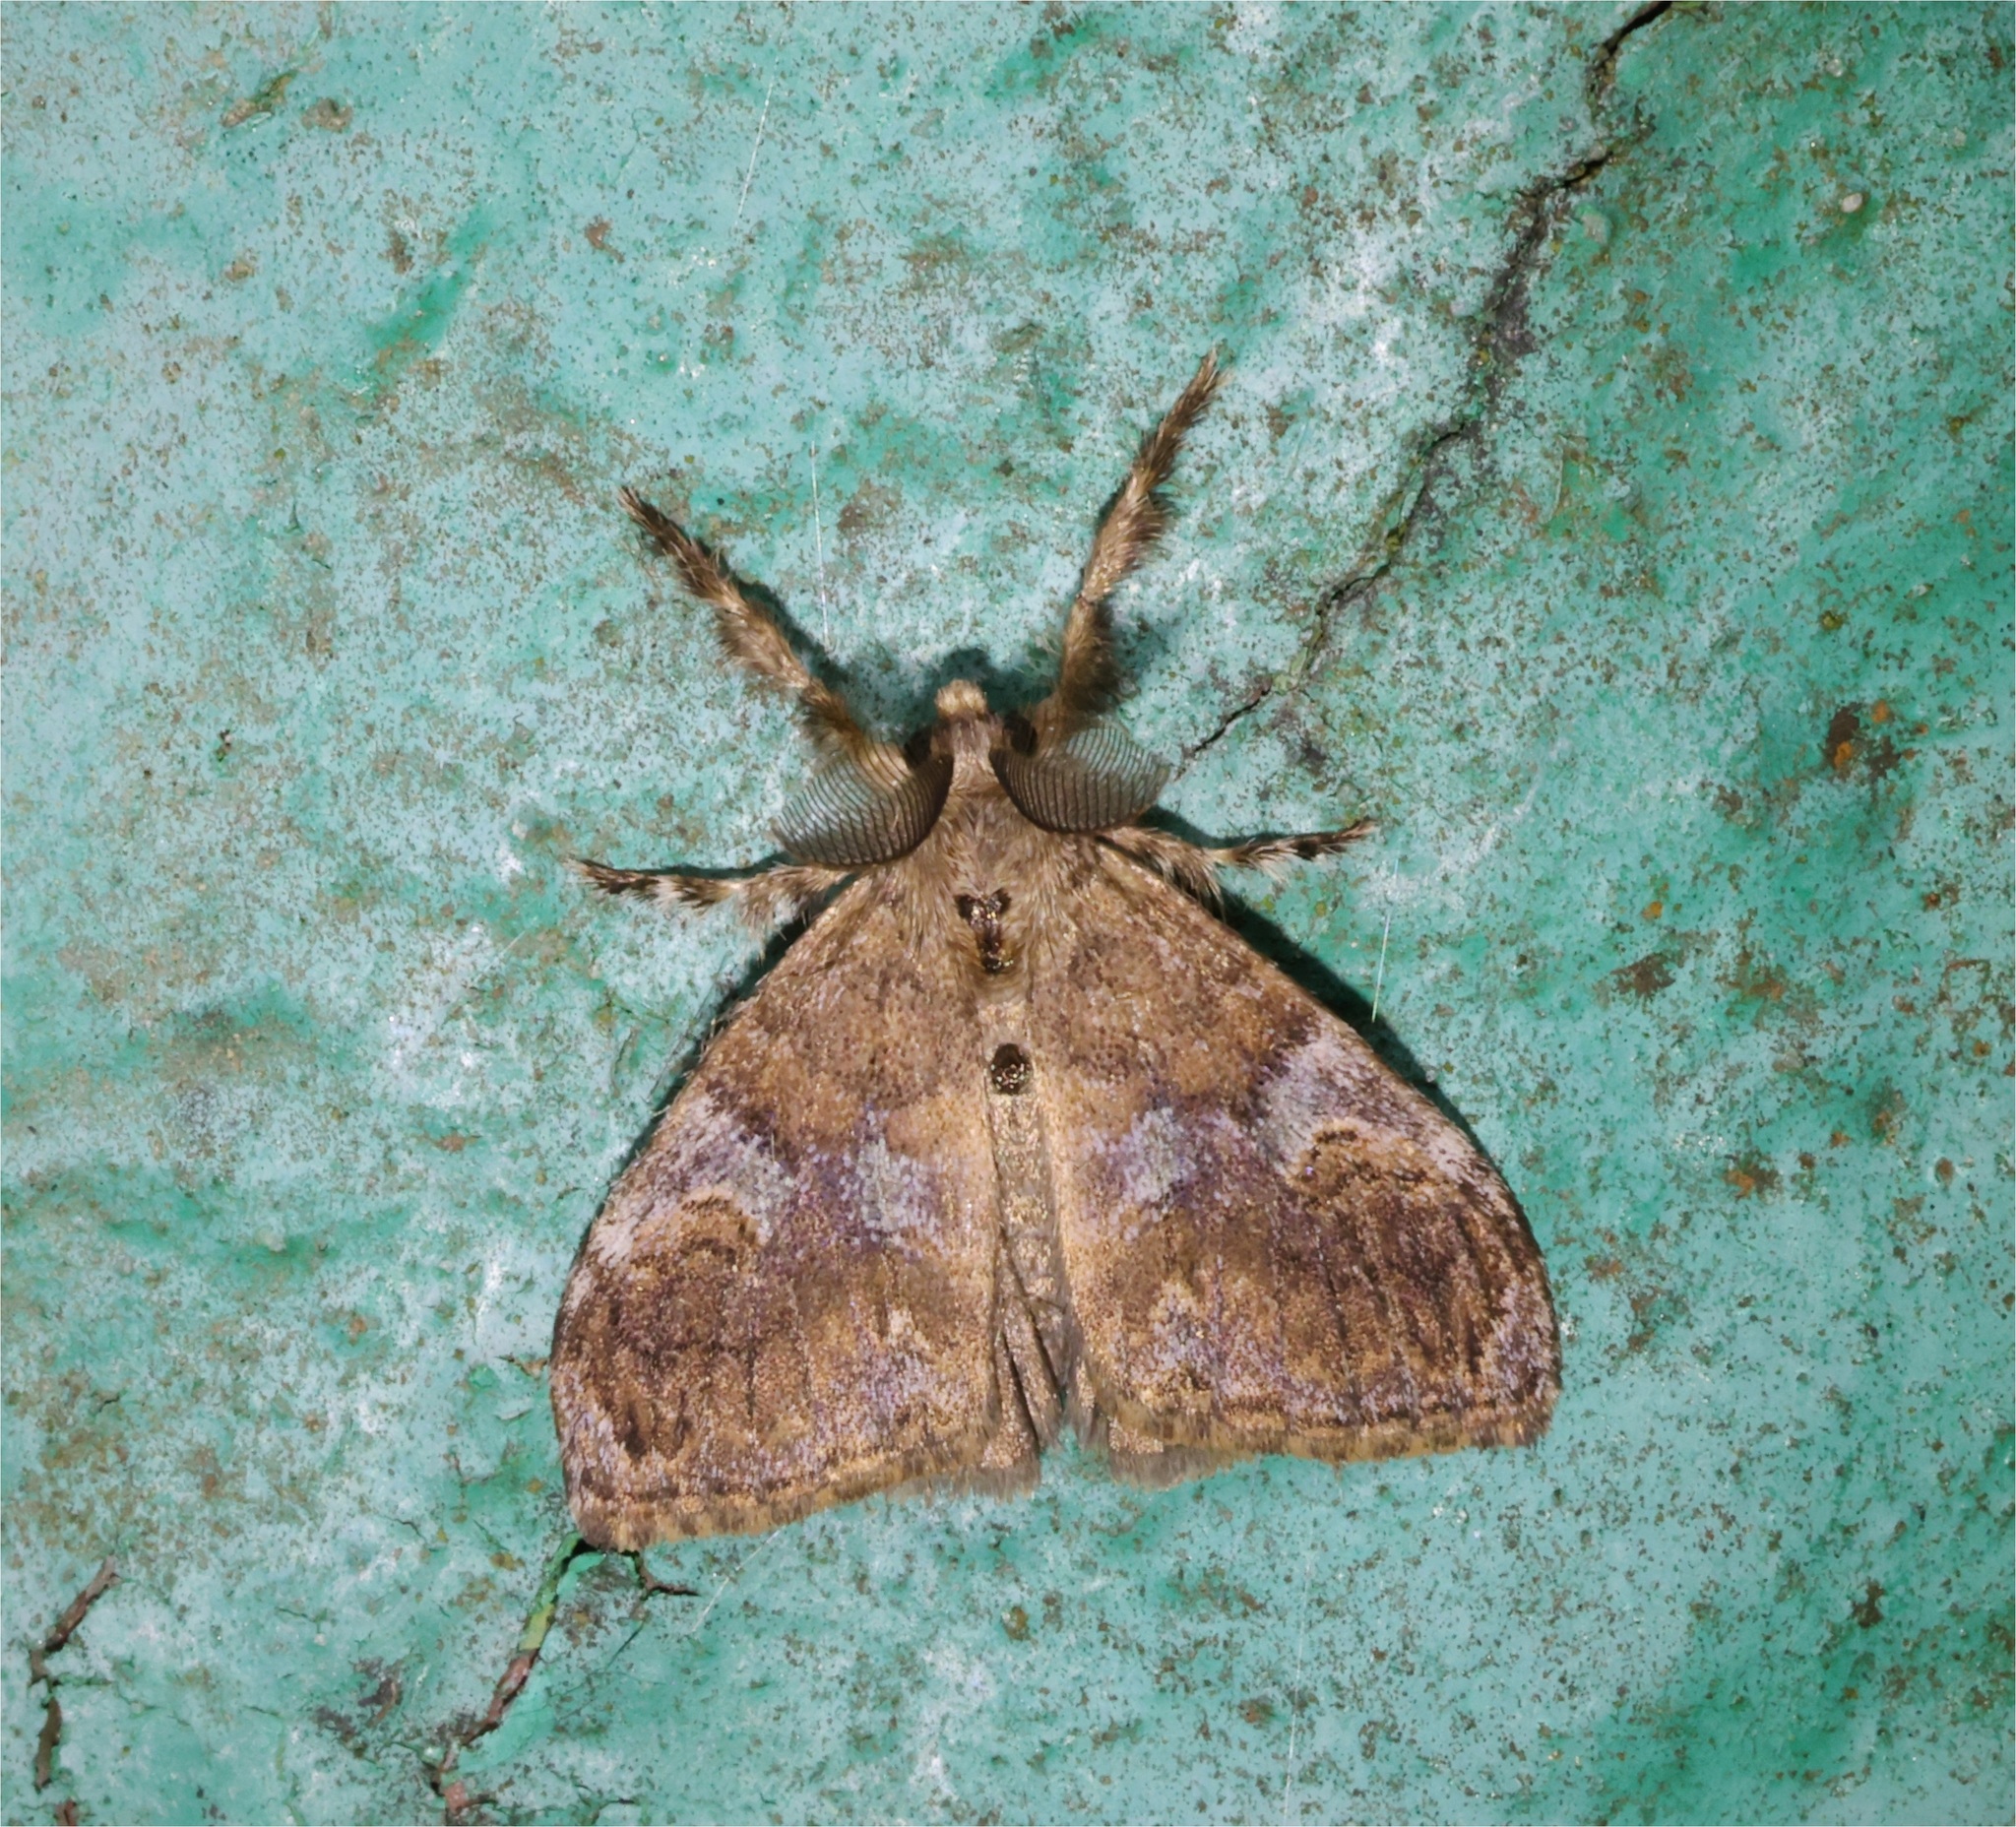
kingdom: Animalia
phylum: Arthropoda
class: Insecta
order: Lepidoptera
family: Erebidae
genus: Orgyia
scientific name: Orgyia postica
